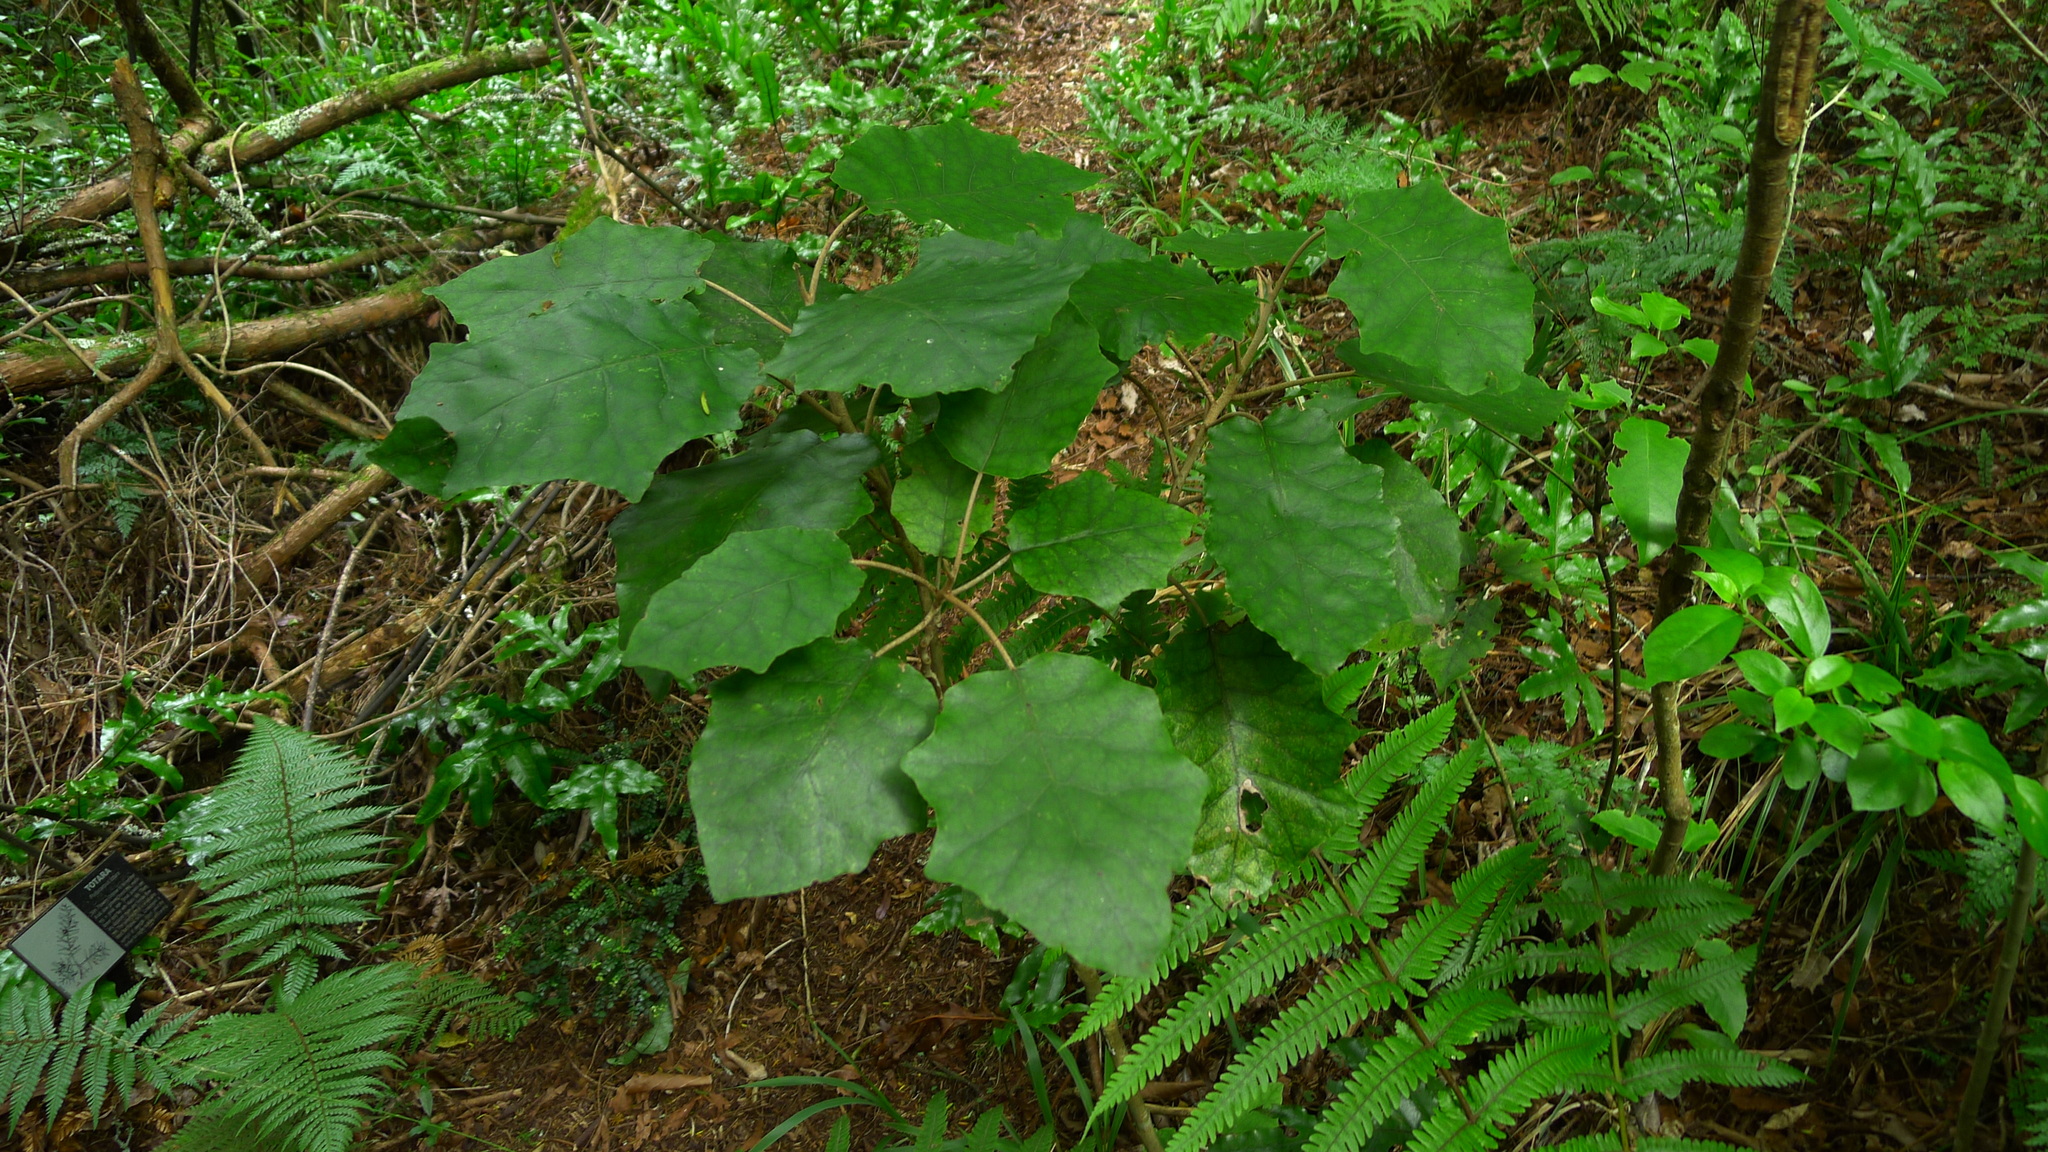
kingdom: Plantae
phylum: Tracheophyta
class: Magnoliopsida
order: Asterales
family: Asteraceae
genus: Brachyglottis
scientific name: Brachyglottis repanda
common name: Hedge ragwort
